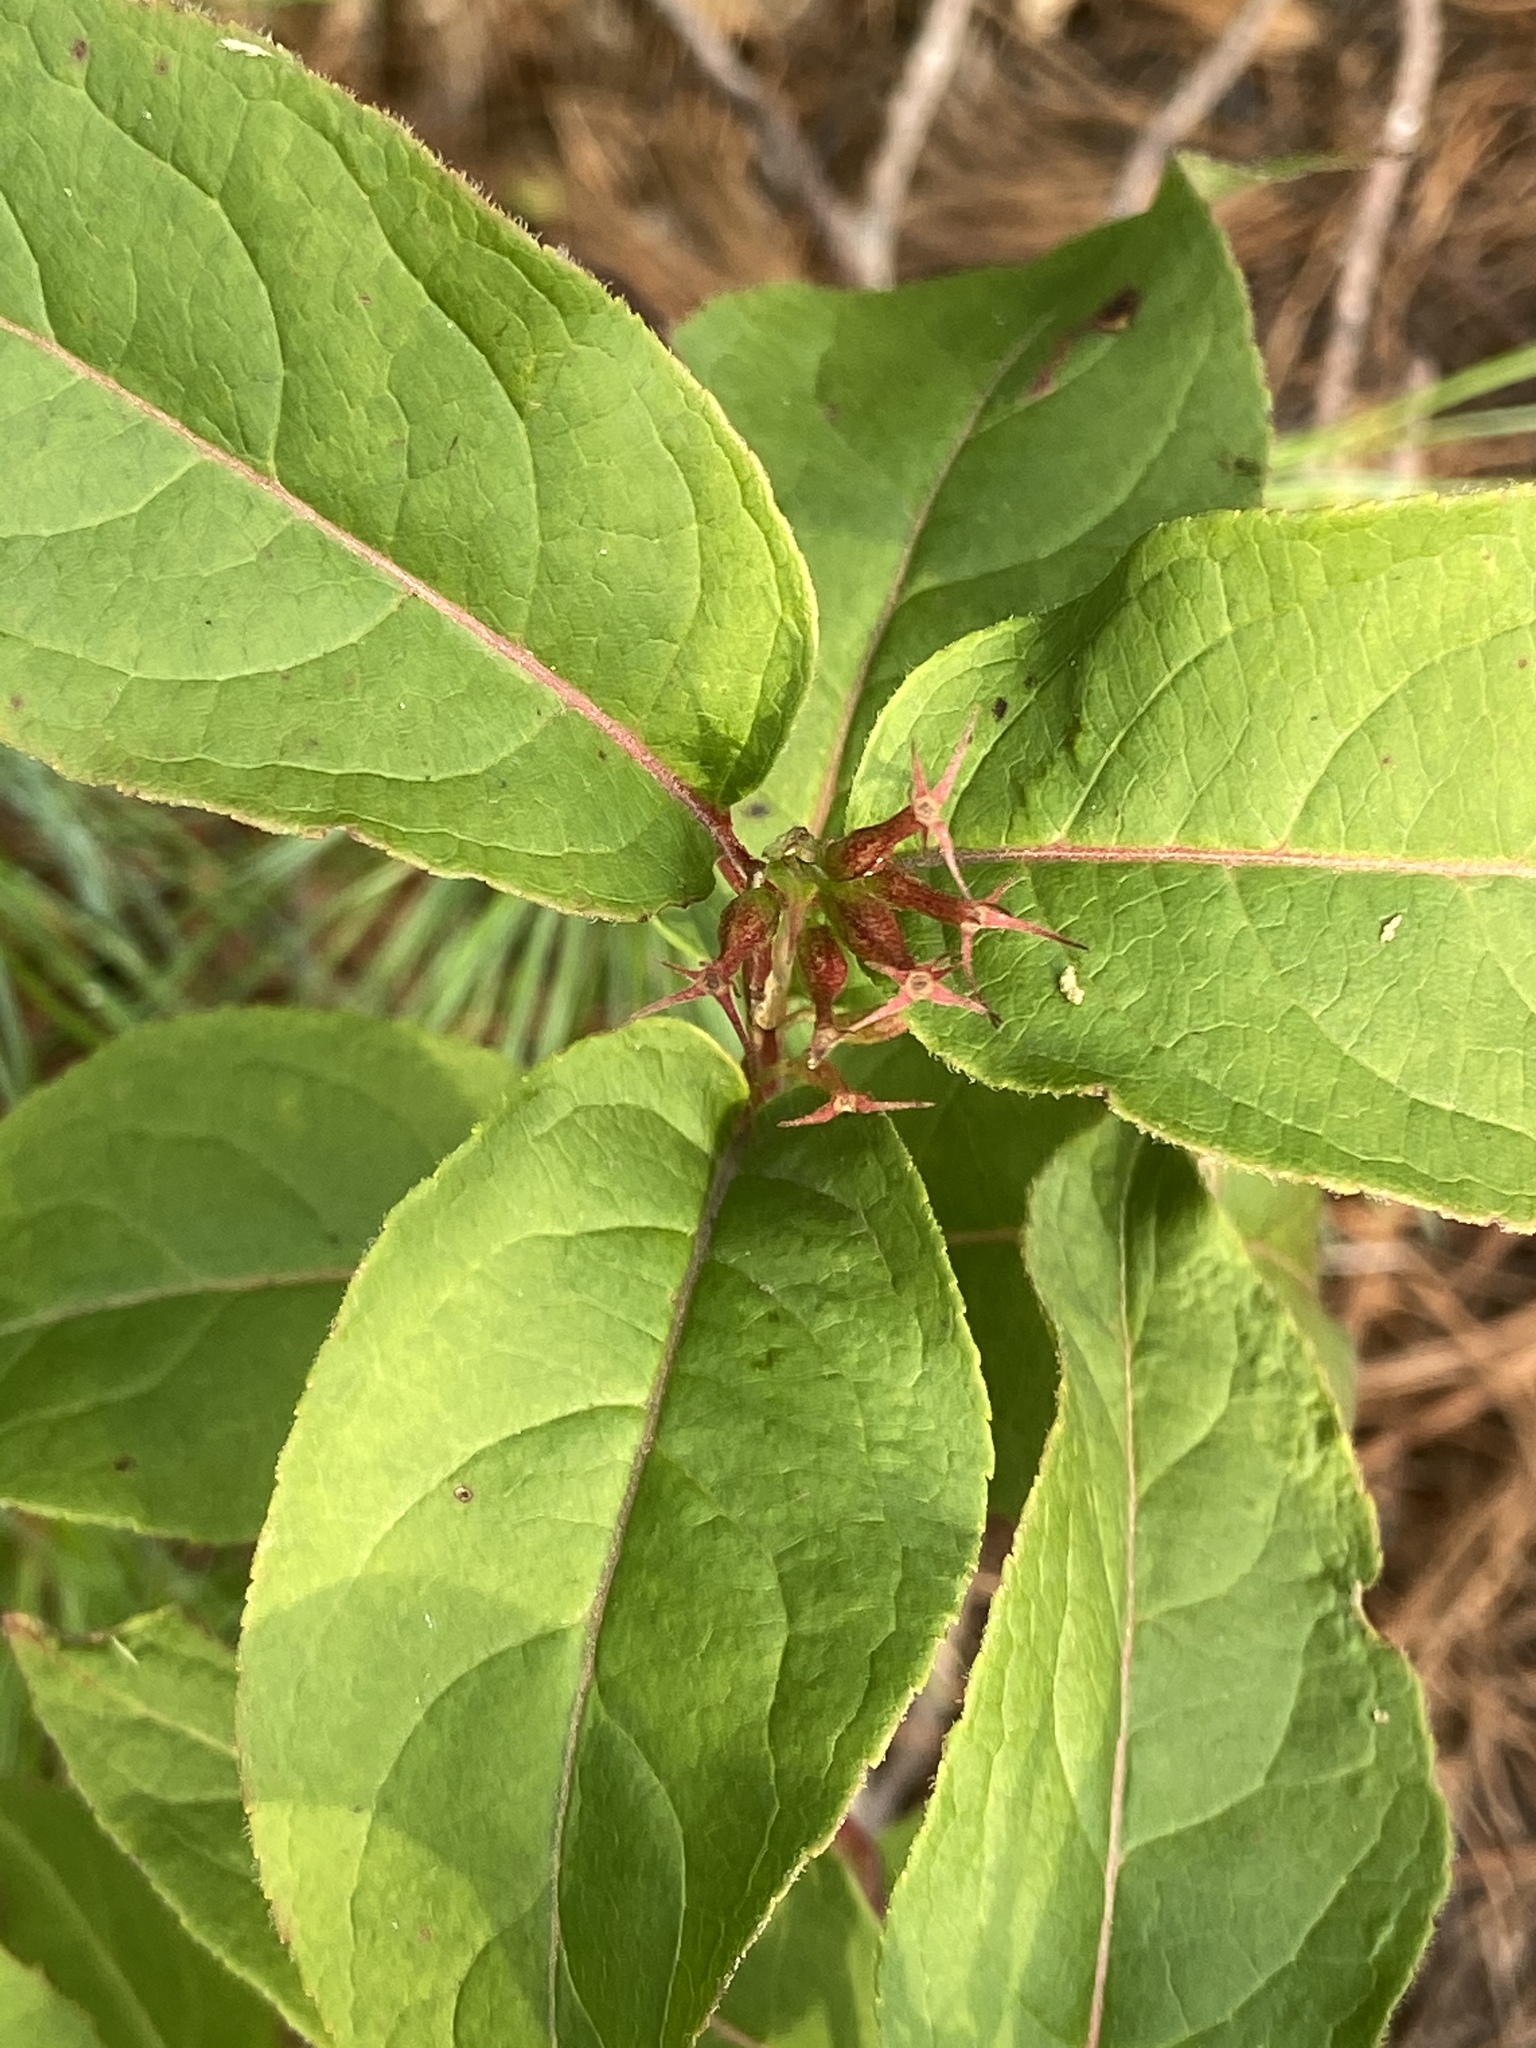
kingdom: Plantae
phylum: Tracheophyta
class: Magnoliopsida
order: Dipsacales
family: Caprifoliaceae
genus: Diervilla
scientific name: Diervilla lonicera
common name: Bush-honeysuckle
